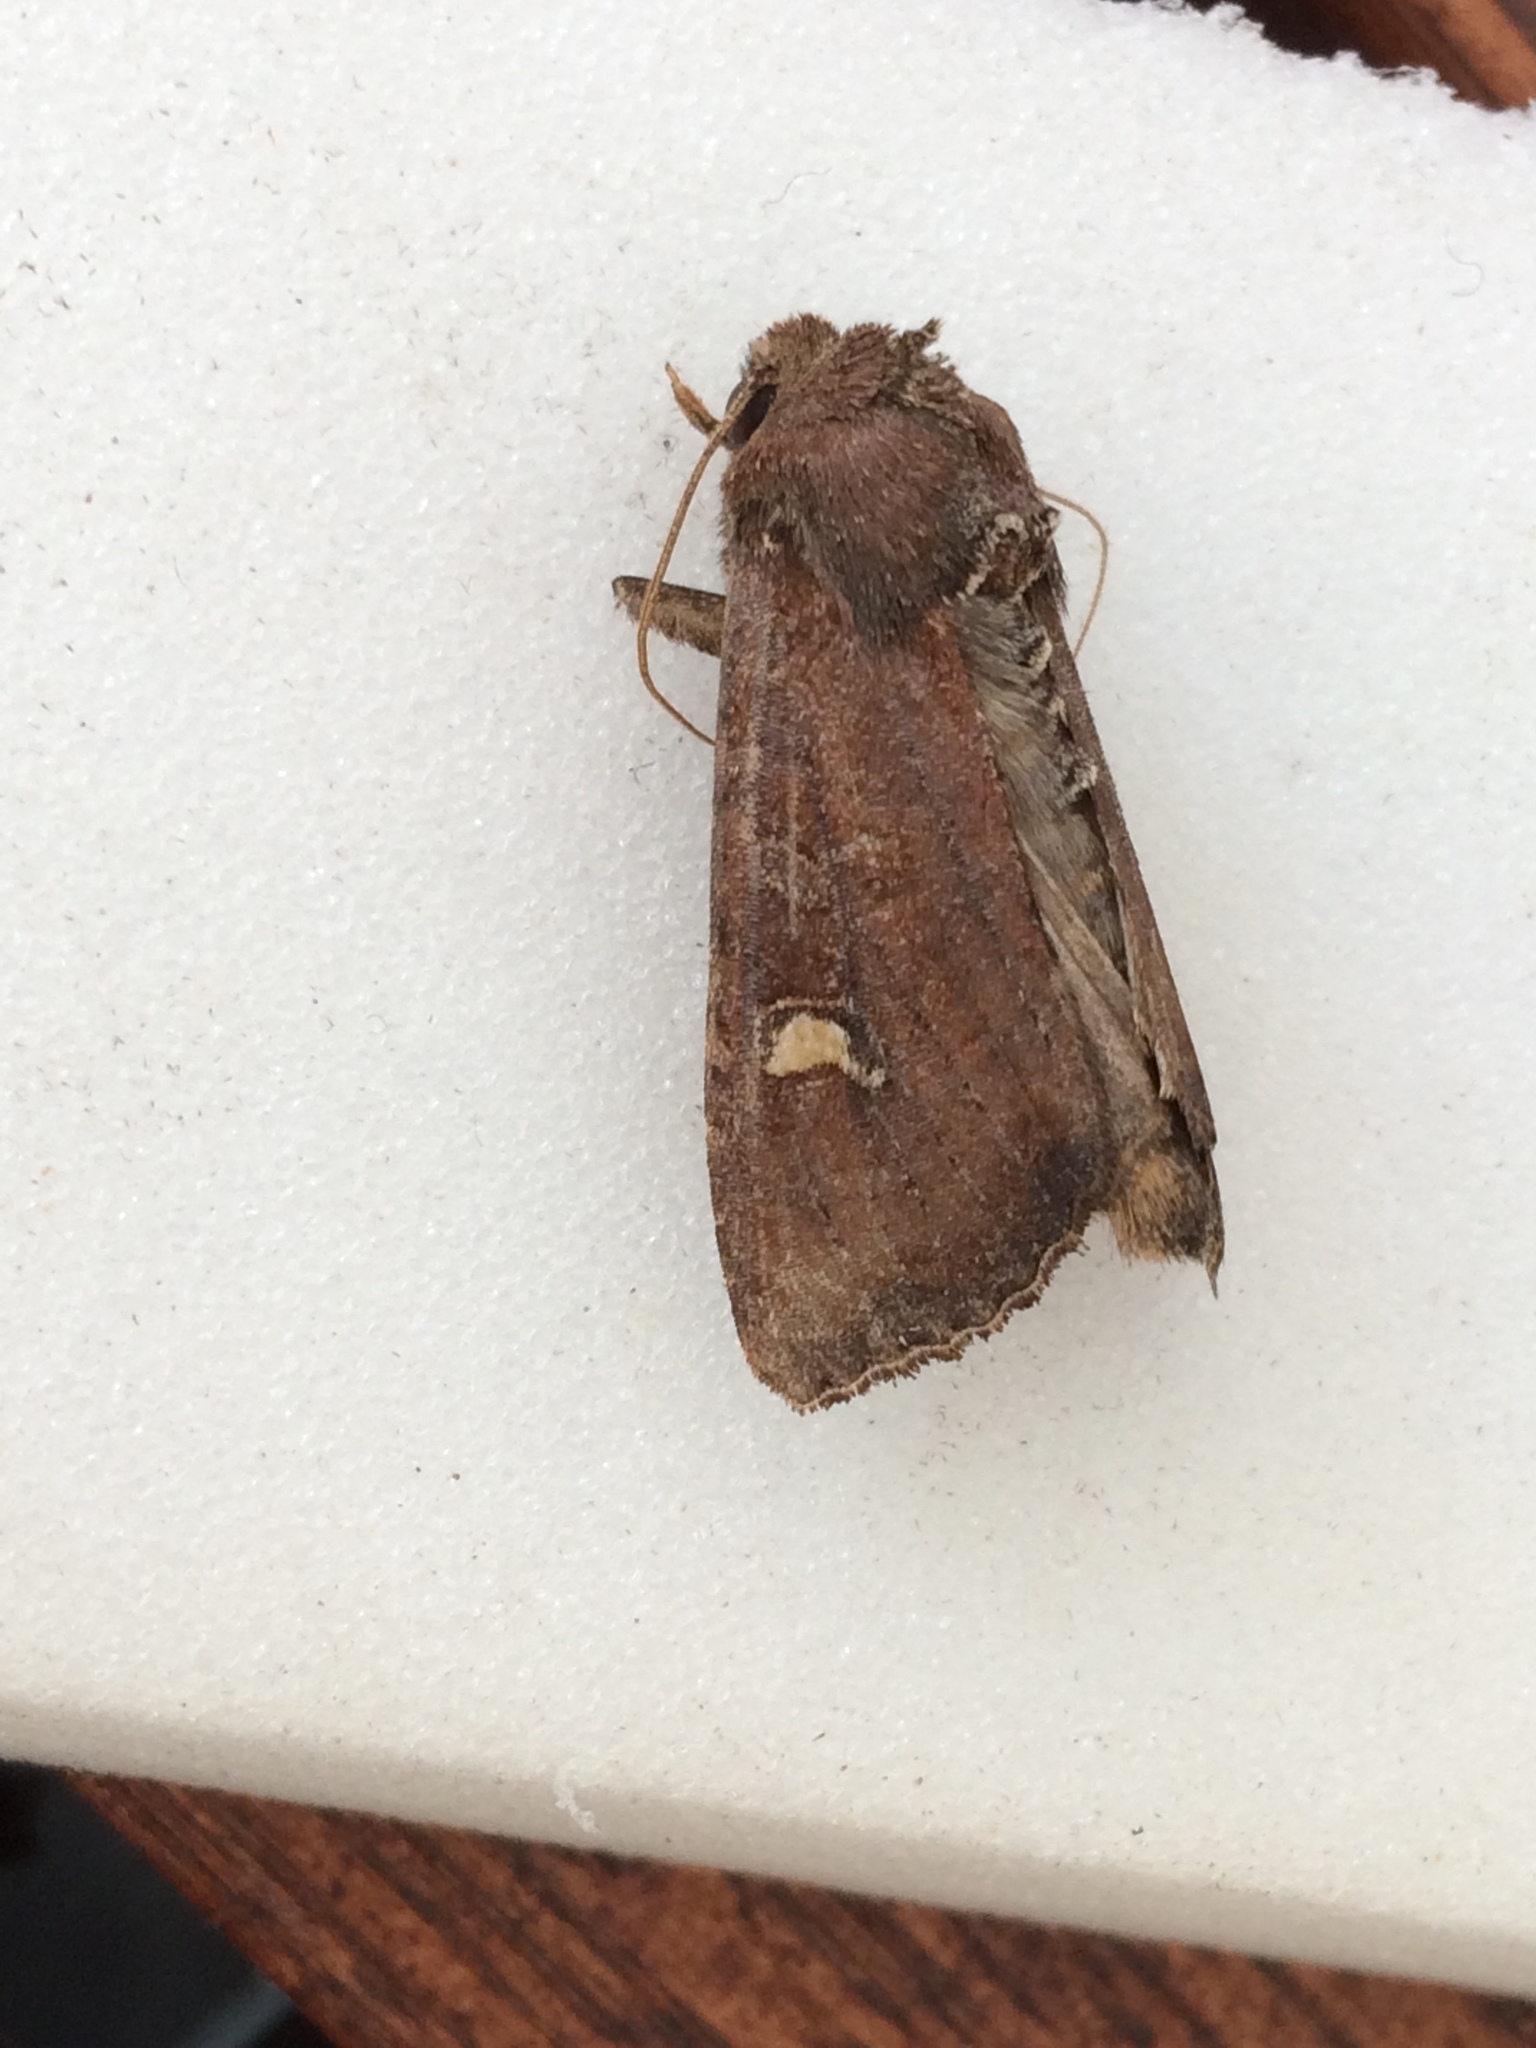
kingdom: Animalia
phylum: Arthropoda
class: Insecta
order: Lepidoptera
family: Noctuidae
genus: Helotropha
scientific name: Helotropha leucostigma
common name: The crescent
